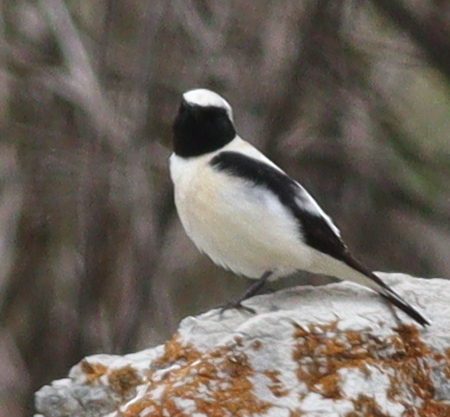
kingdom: Animalia
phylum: Chordata
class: Aves
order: Passeriformes
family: Muscicapidae
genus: Oenanthe
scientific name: Oenanthe hispanica
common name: Black-eared wheatear
